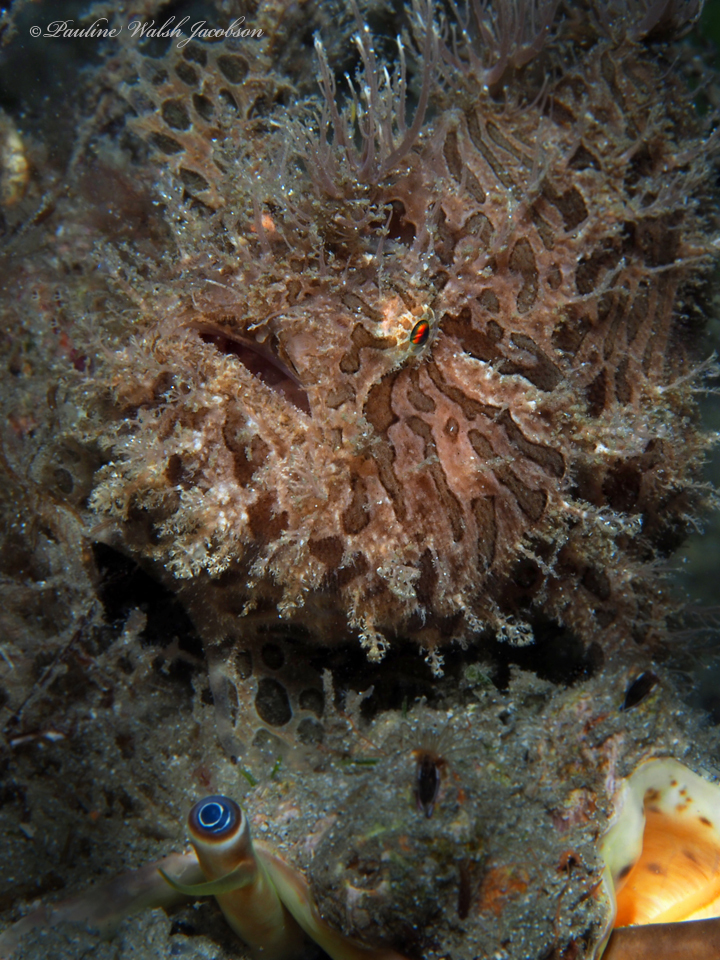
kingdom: Animalia
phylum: Chordata
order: Lophiiformes
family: Antennariidae
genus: Antennarius
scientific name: Antennarius striatus
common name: Striated frogfish
